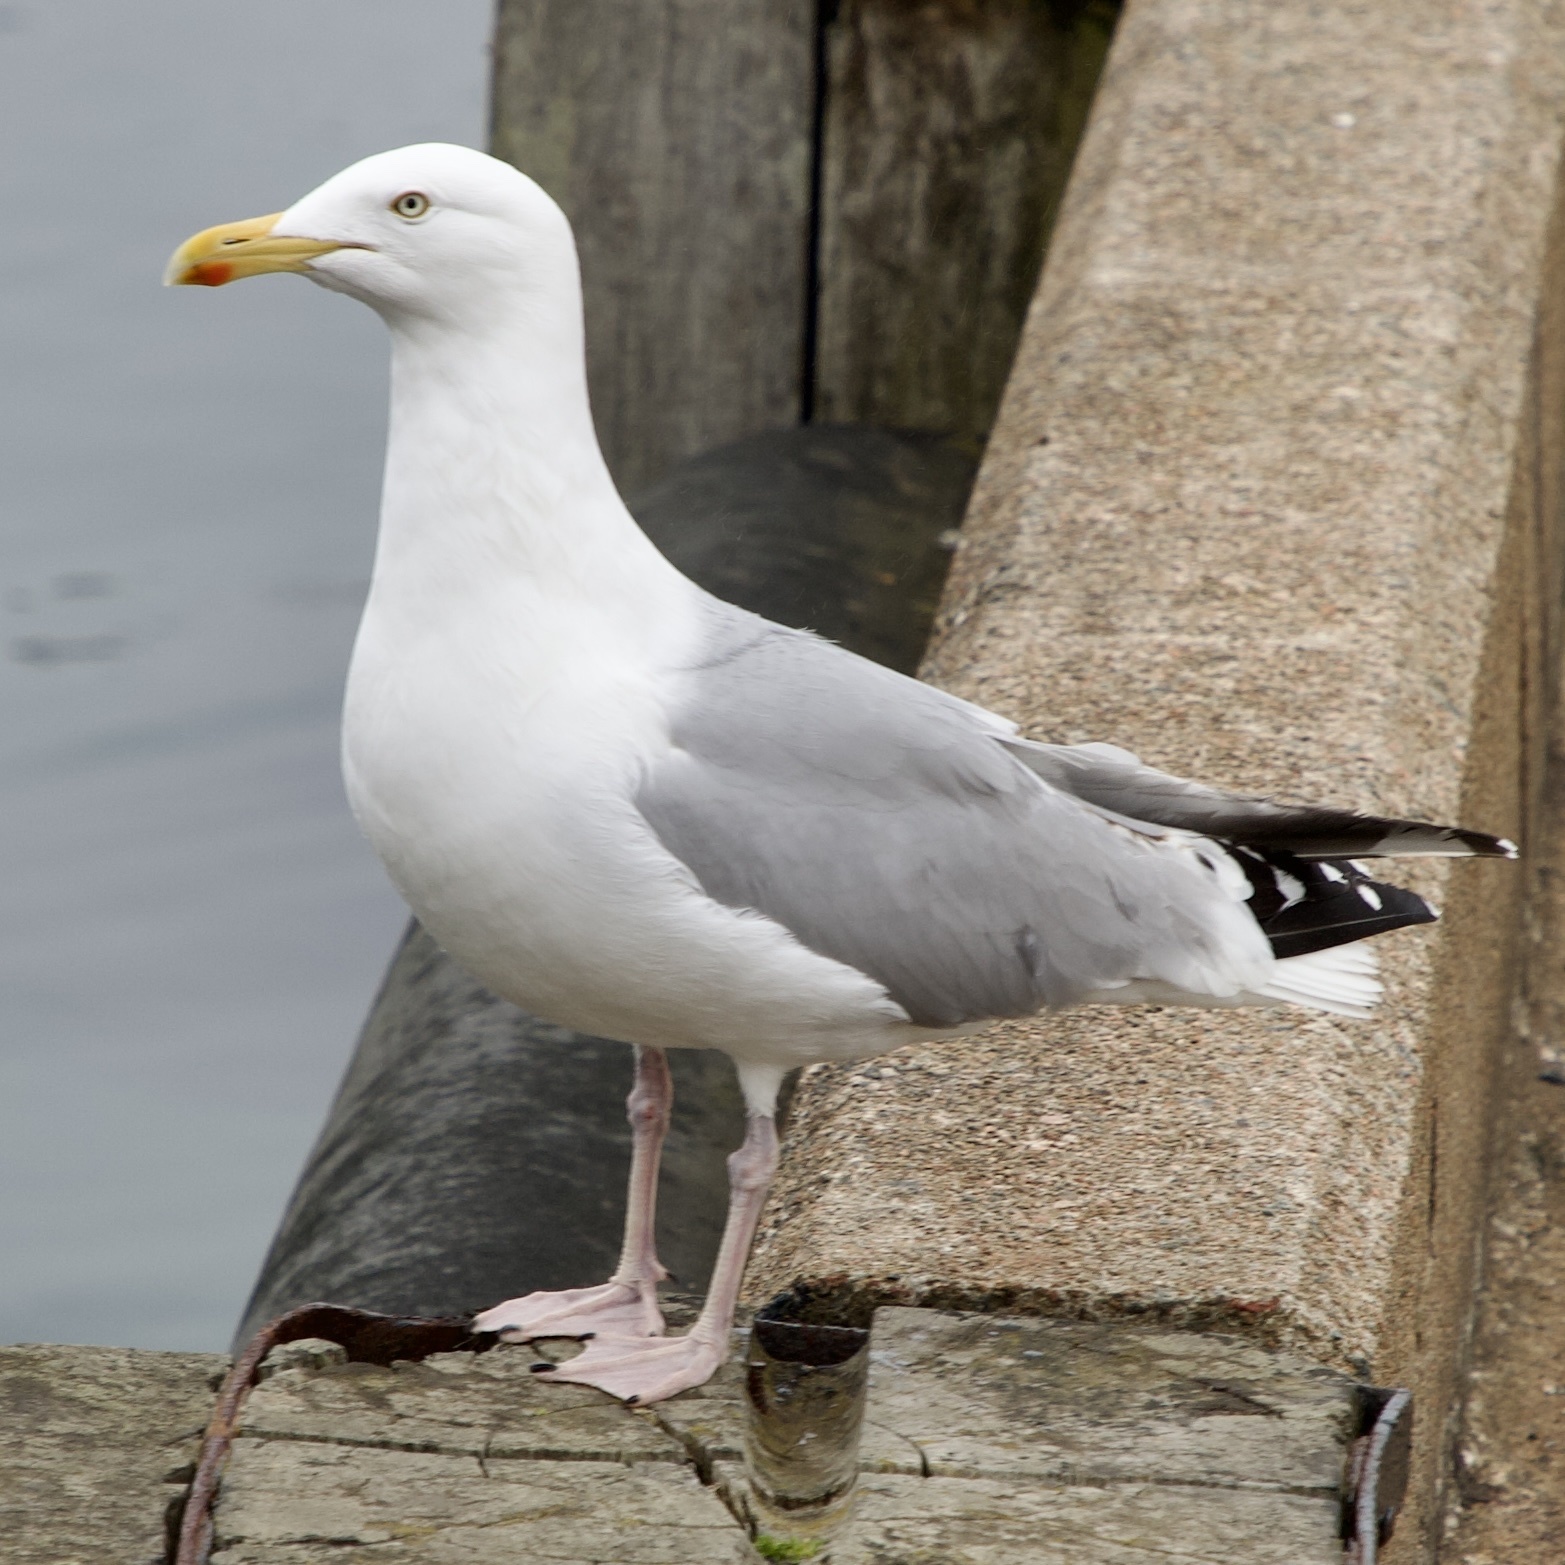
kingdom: Animalia
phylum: Chordata
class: Aves
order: Charadriiformes
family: Laridae
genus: Larus
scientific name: Larus argentatus
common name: Herring gull
